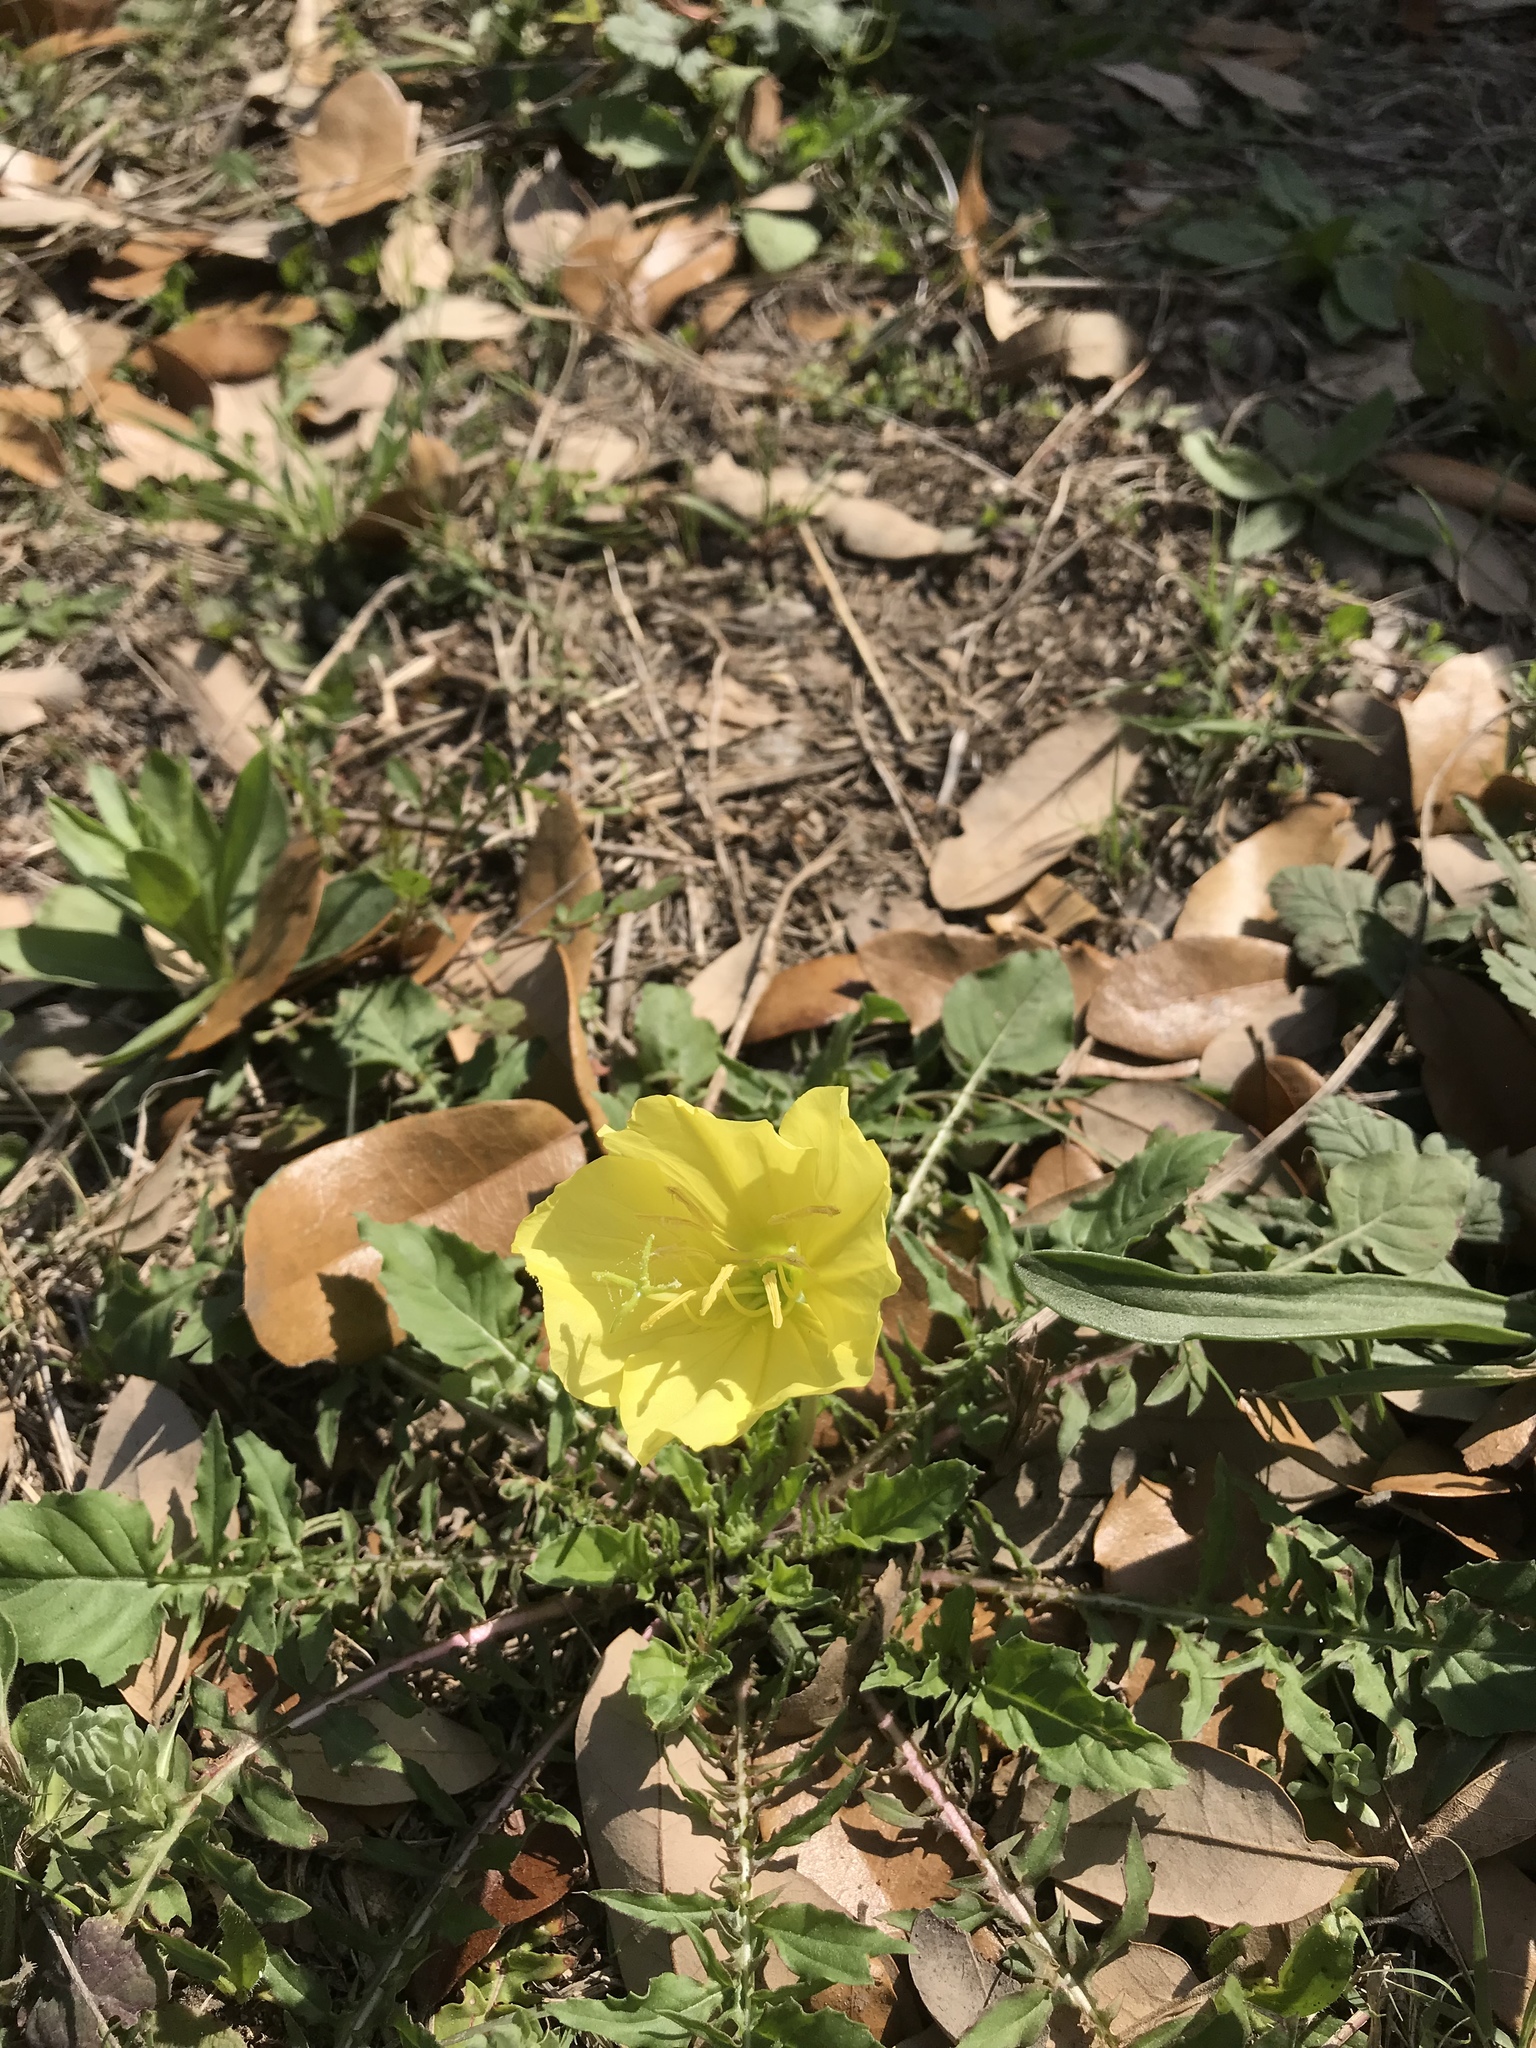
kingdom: Plantae
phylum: Tracheophyta
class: Magnoliopsida
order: Myrtales
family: Onagraceae
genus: Oenothera
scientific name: Oenothera triloba
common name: Sessile evening-primrose
